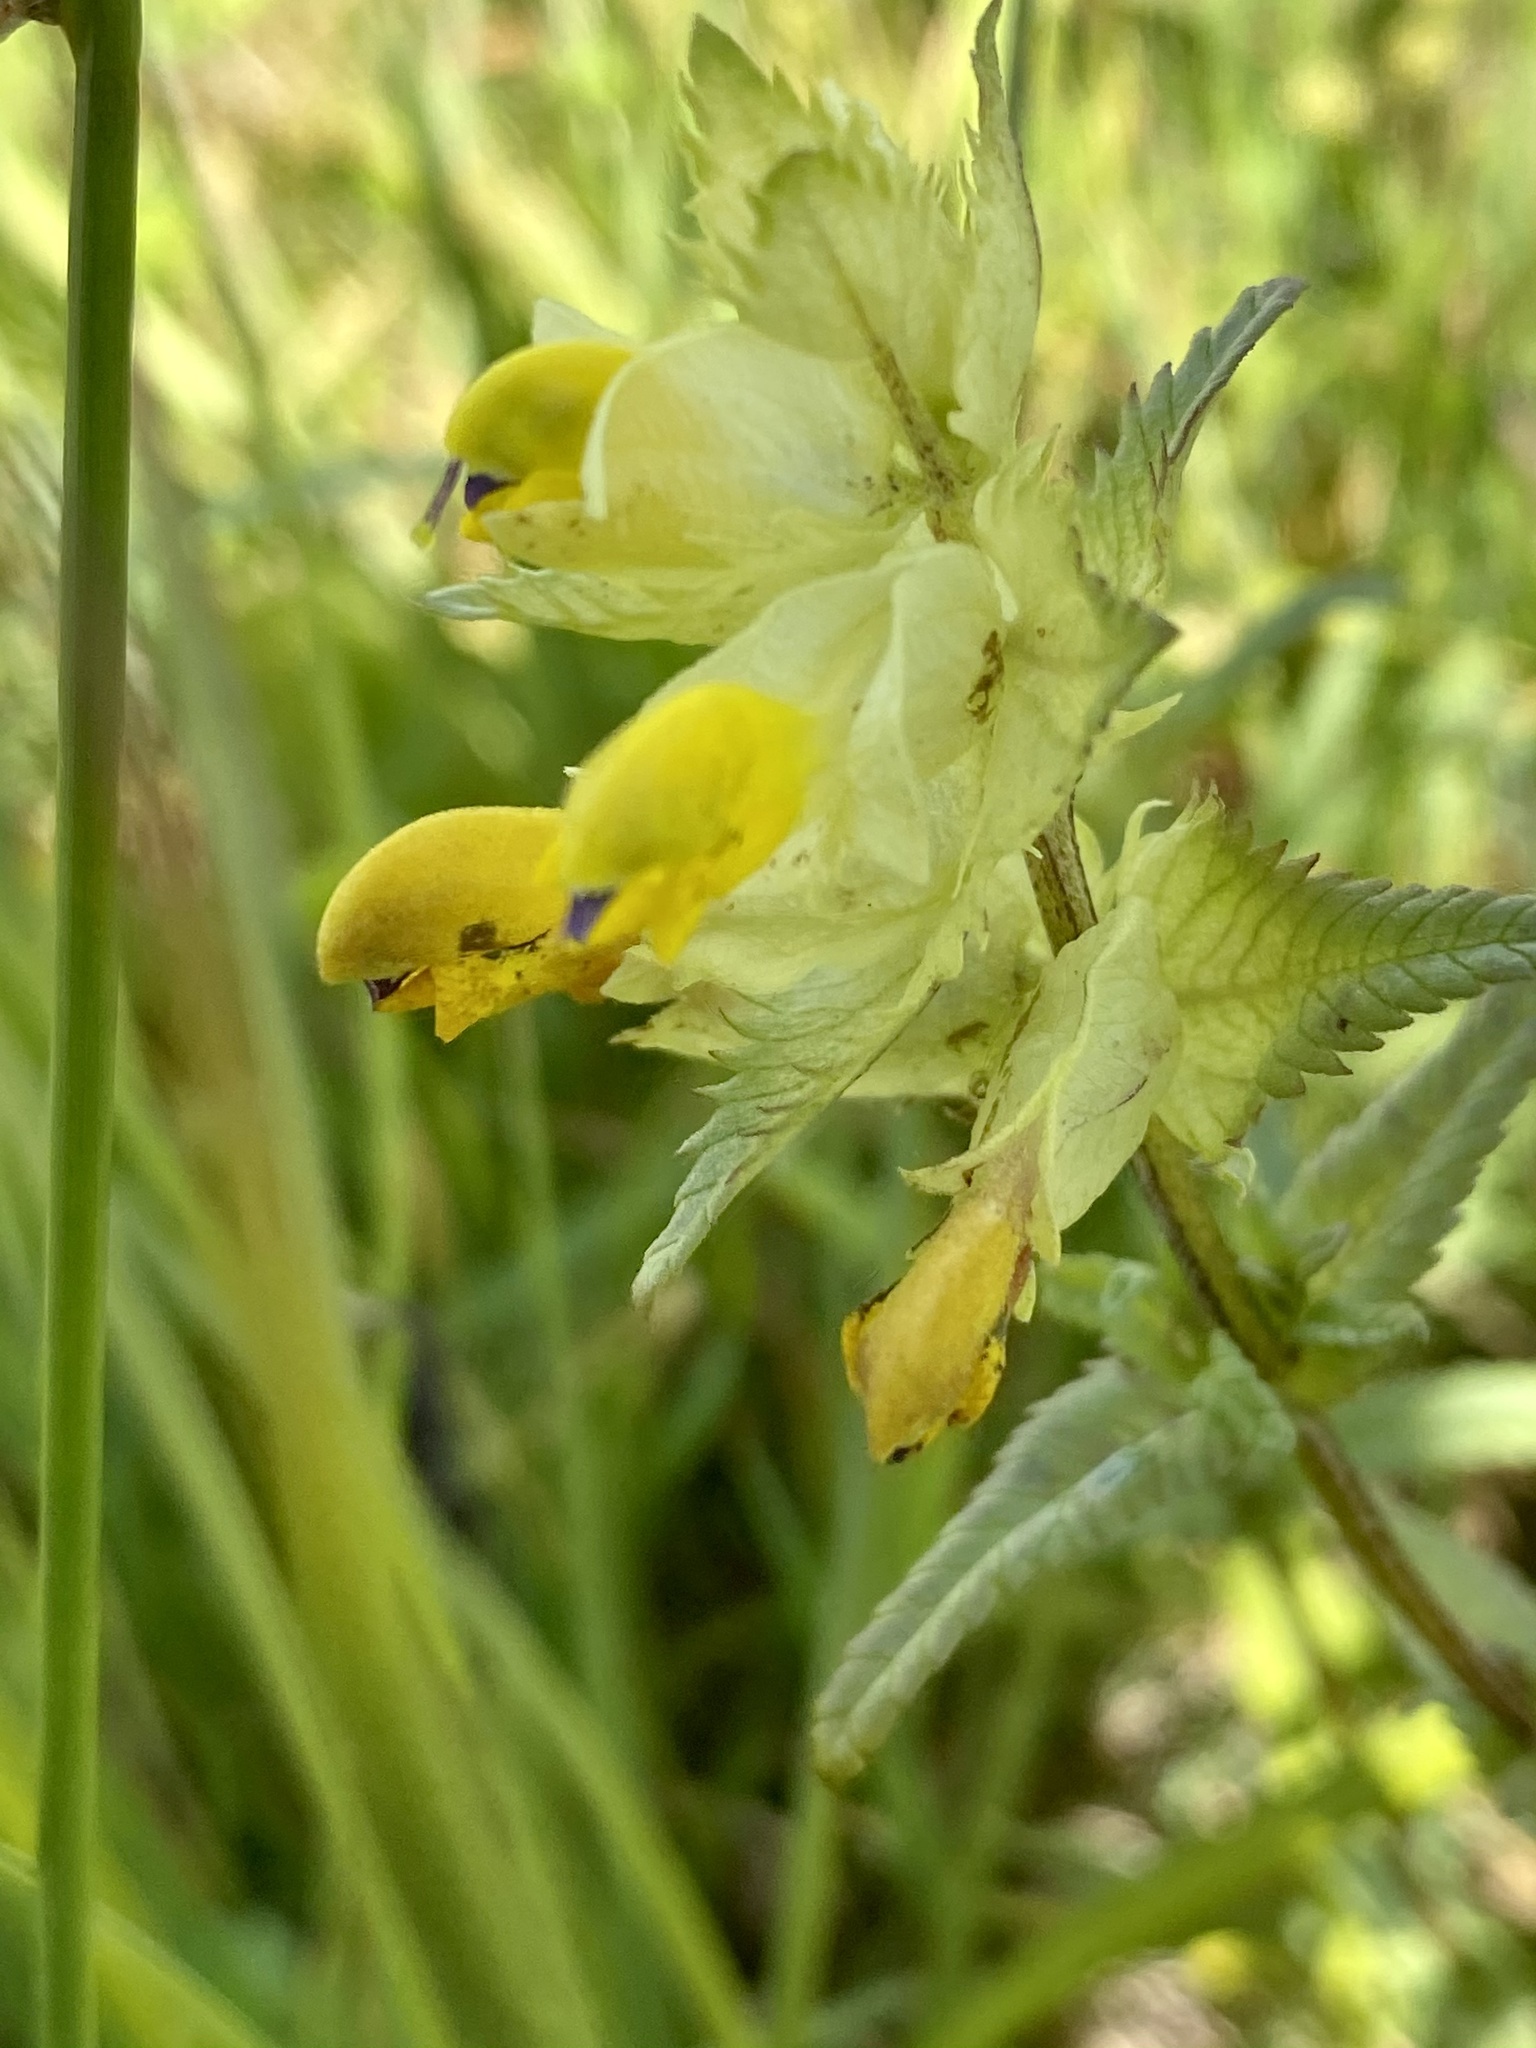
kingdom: Plantae
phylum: Tracheophyta
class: Magnoliopsida
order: Lamiales
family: Orobanchaceae
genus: Rhinanthus
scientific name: Rhinanthus serotinus
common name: Late-flowering yellow rattle
